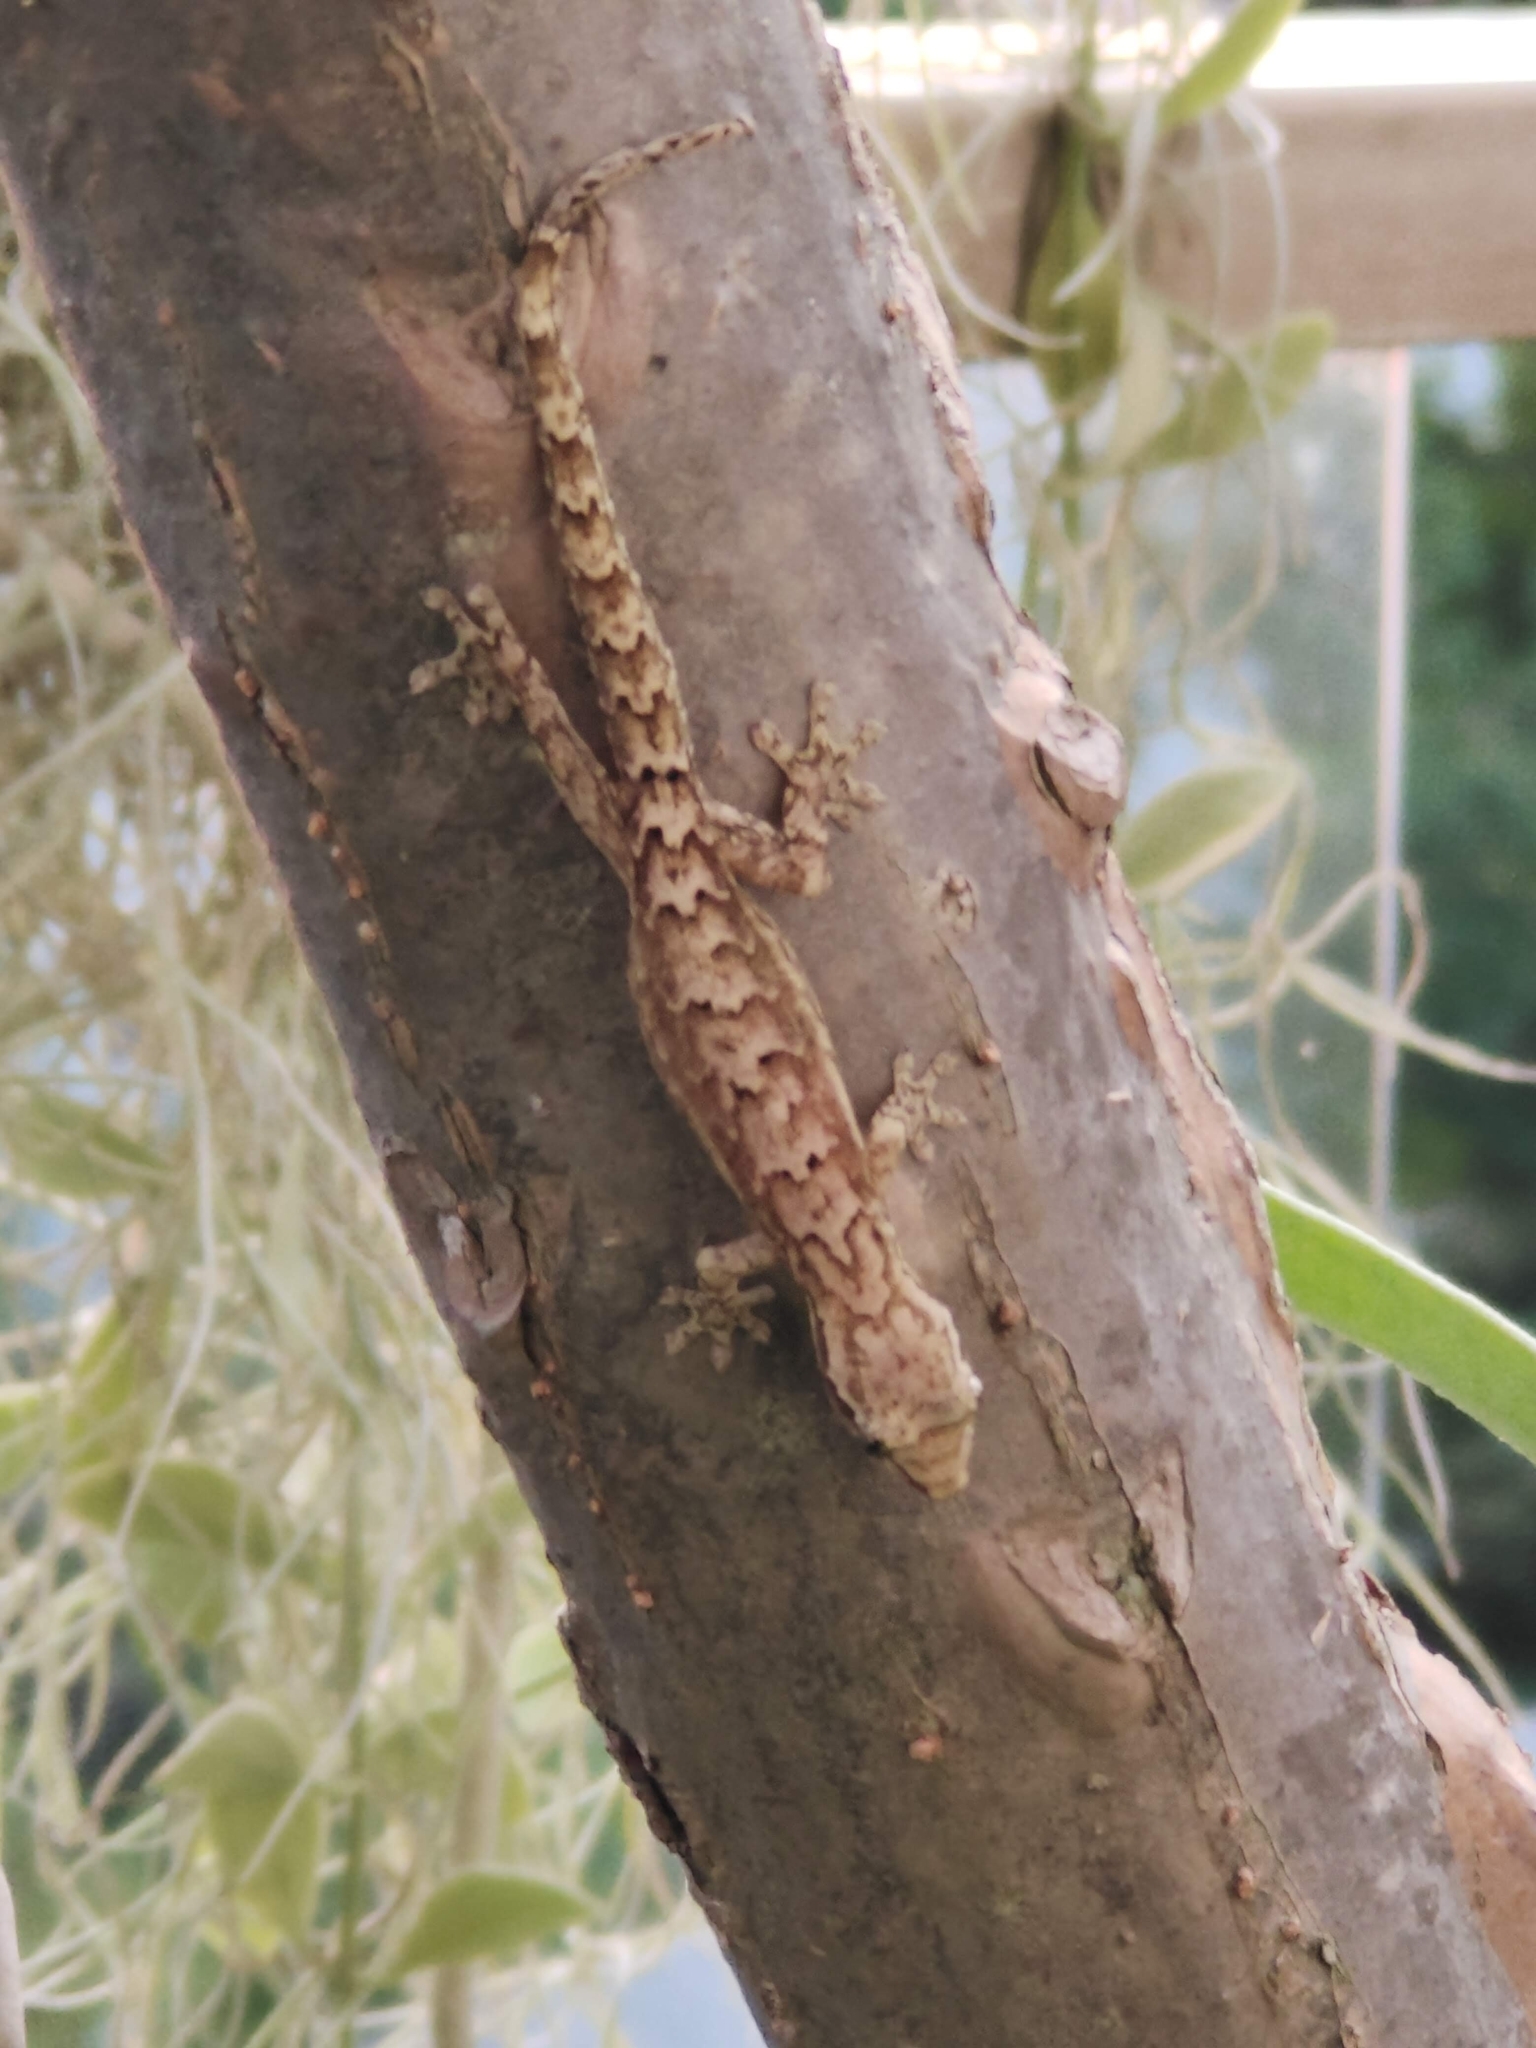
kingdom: Animalia
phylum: Chordata
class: Squamata
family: Gekkonidae
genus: Lepidodactylus
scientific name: Lepidodactylus lugubris
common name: Mourning gecko
